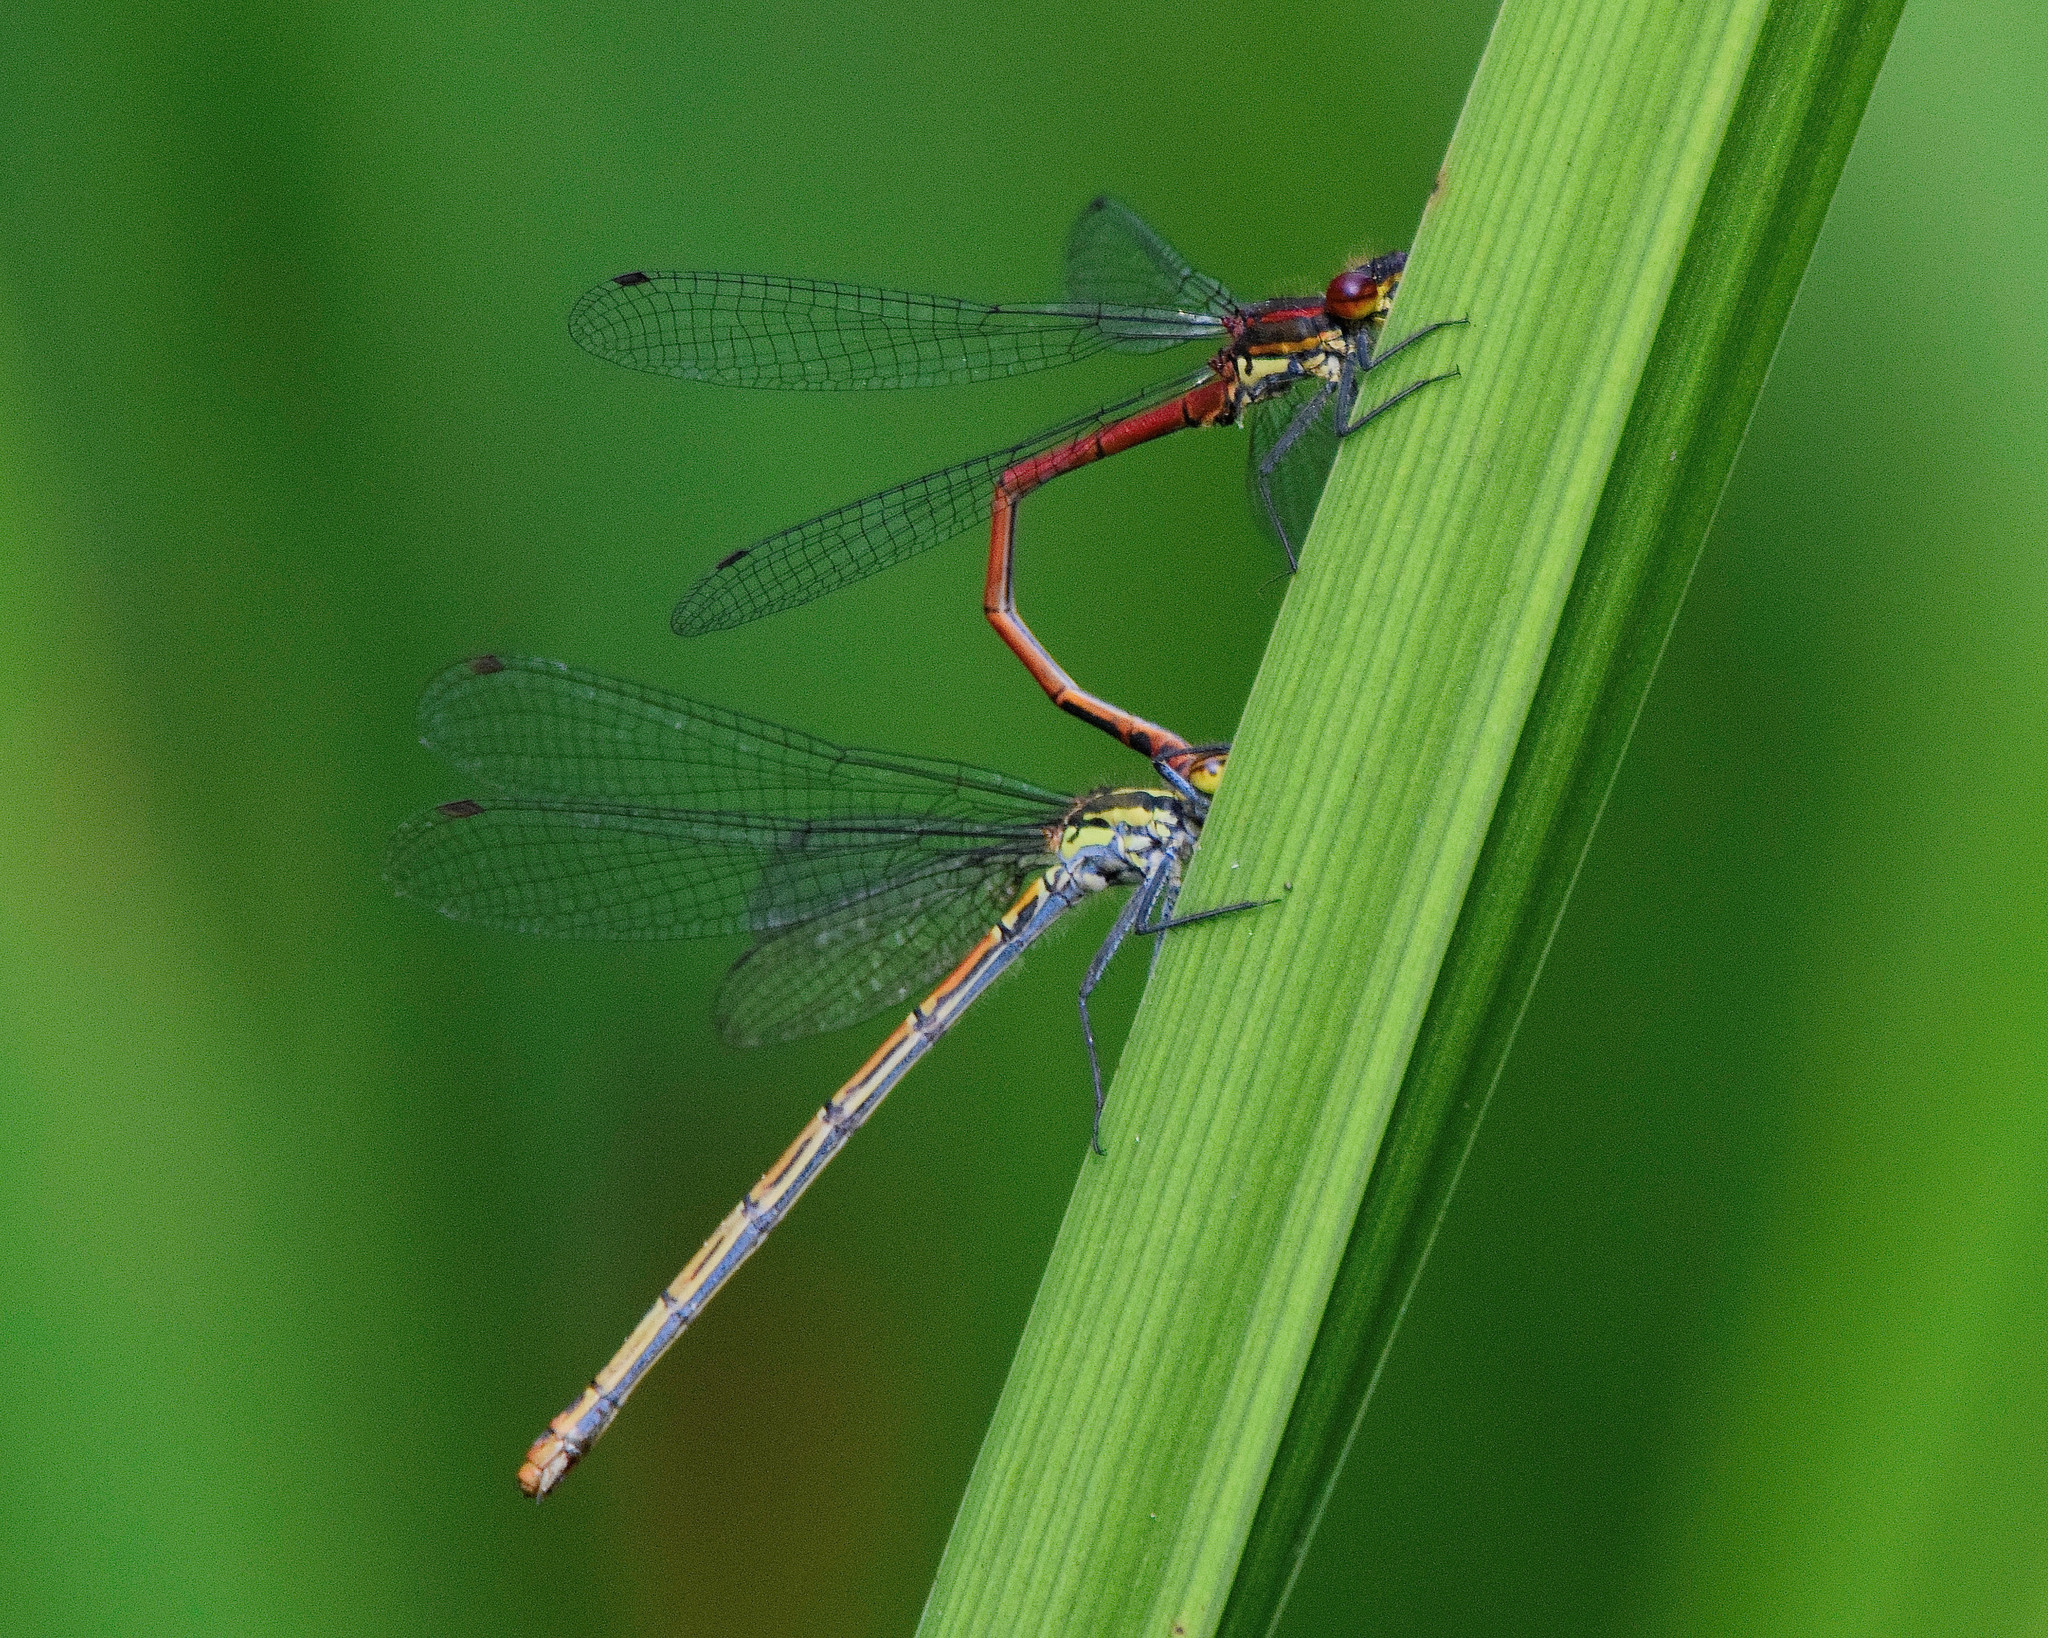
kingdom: Animalia
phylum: Arthropoda
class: Insecta
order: Odonata
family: Coenagrionidae
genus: Pyrrhosoma
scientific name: Pyrrhosoma nymphula
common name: Large red damsel
